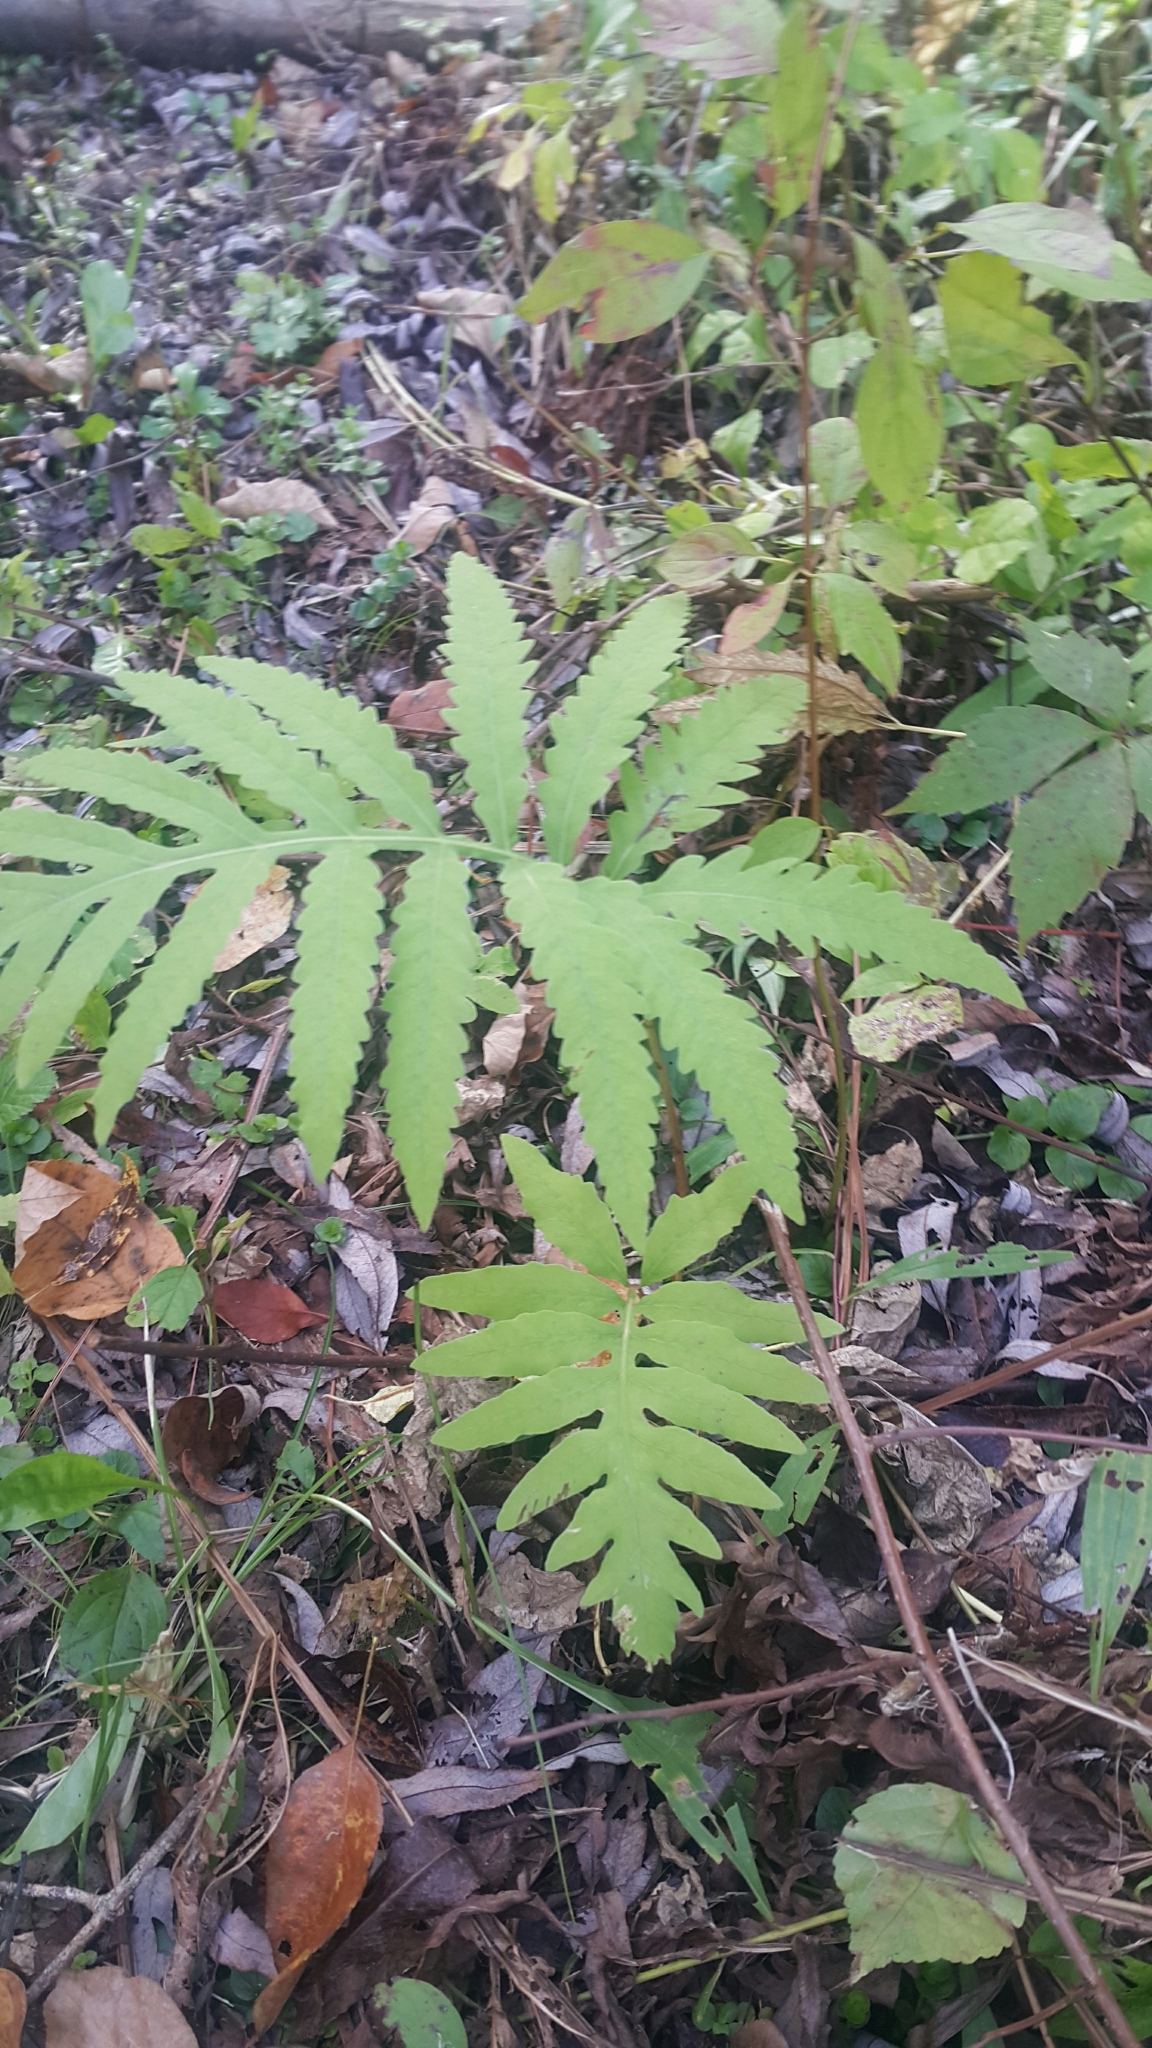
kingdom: Plantae
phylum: Tracheophyta
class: Polypodiopsida
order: Polypodiales
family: Onocleaceae
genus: Onoclea
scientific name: Onoclea sensibilis
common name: Sensitive fern
